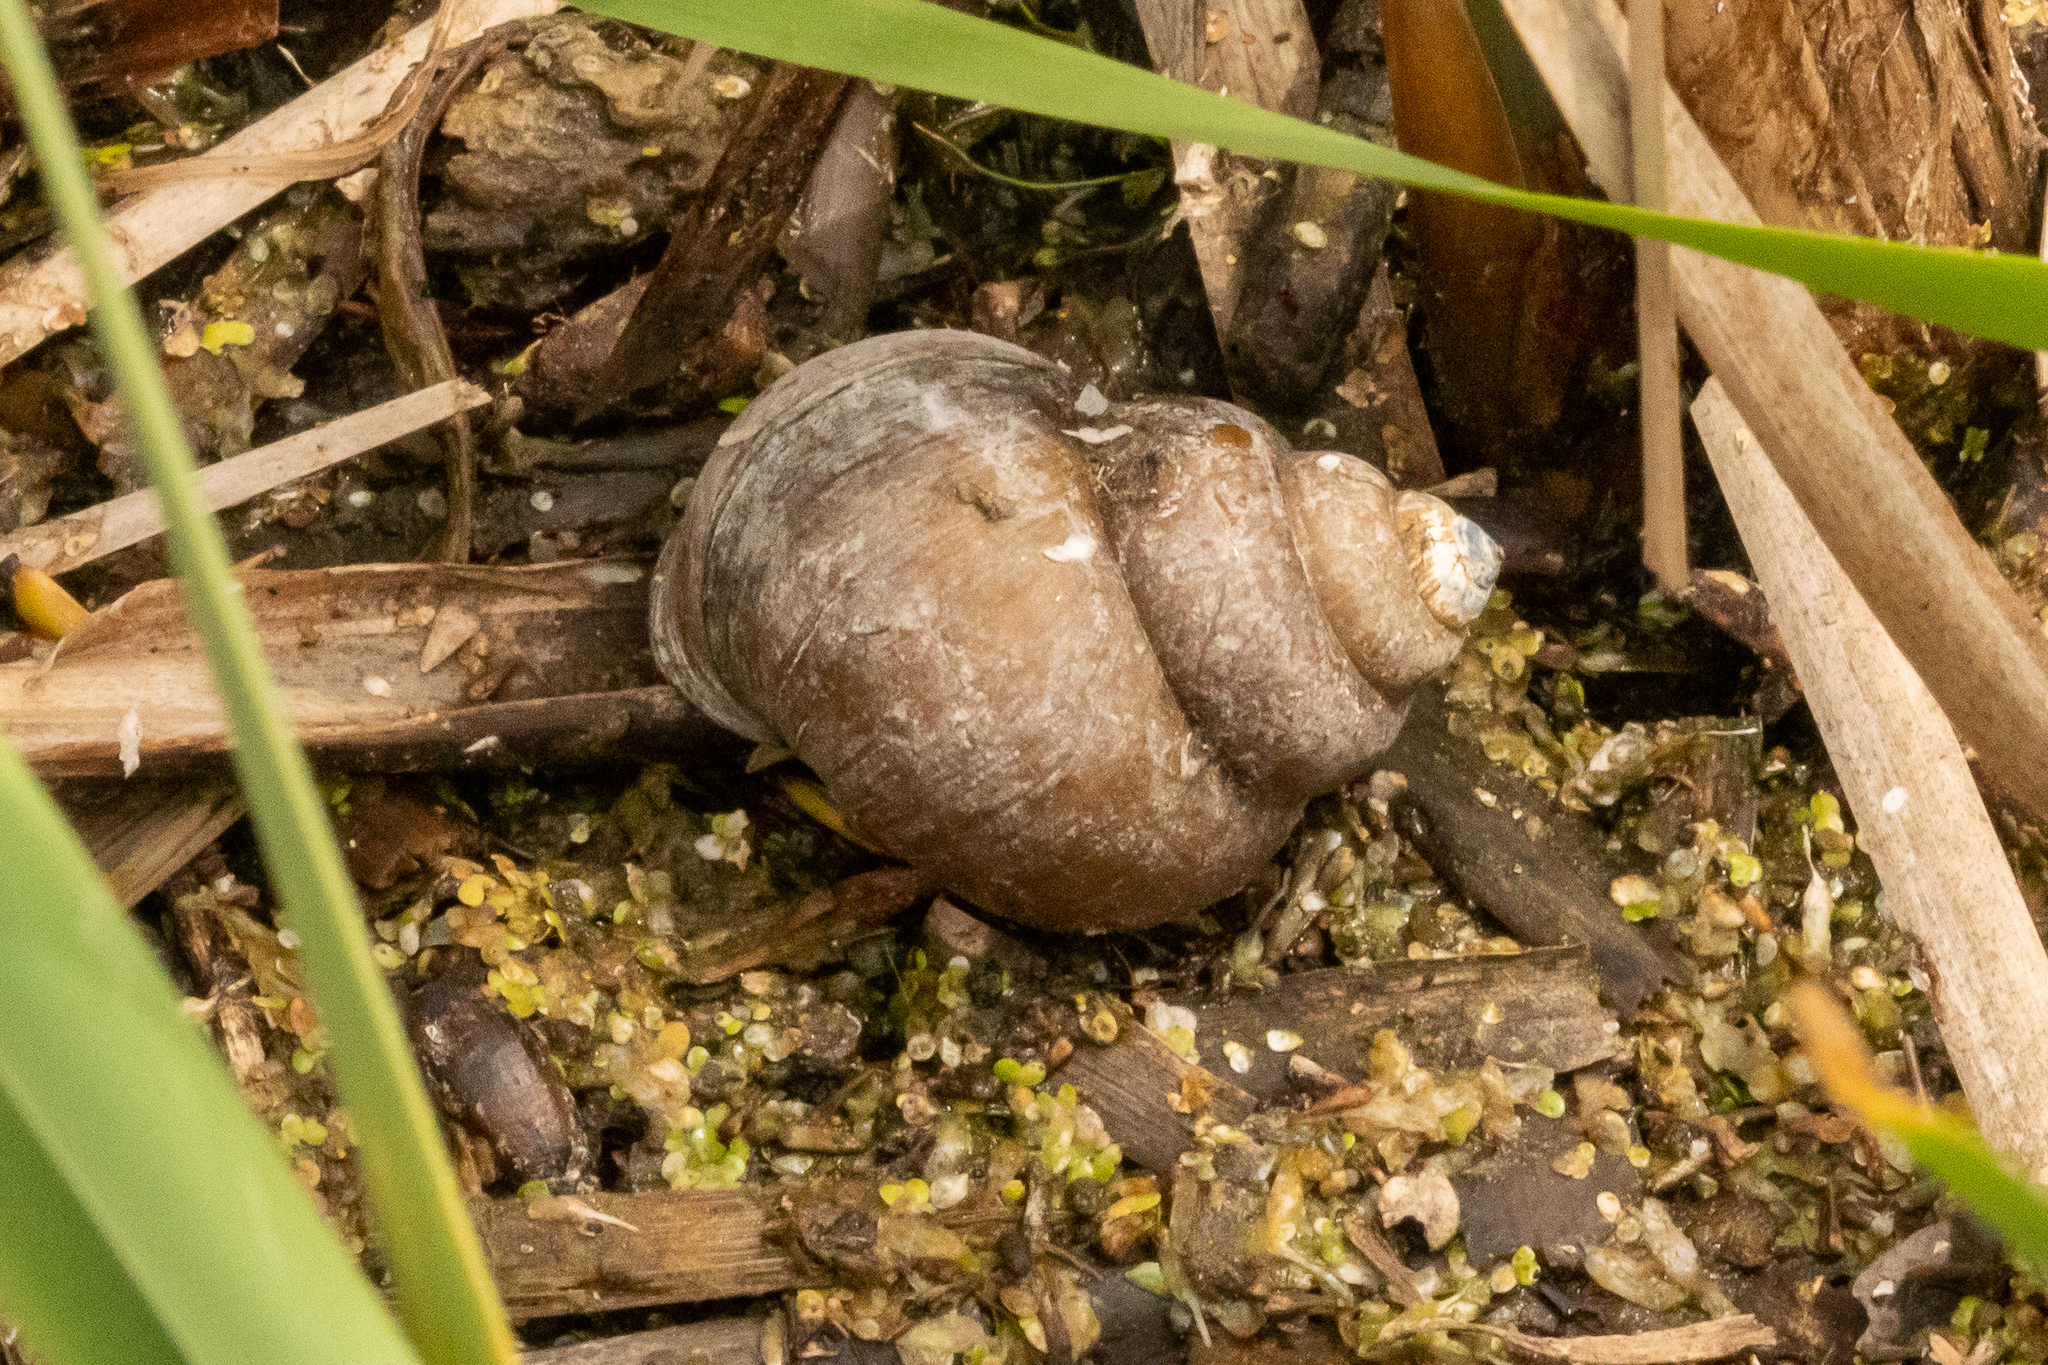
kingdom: Animalia
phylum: Mollusca
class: Gastropoda
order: Architaenioglossa
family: Viviparidae
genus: Cipangopaludina
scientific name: Cipangopaludina chinensis
